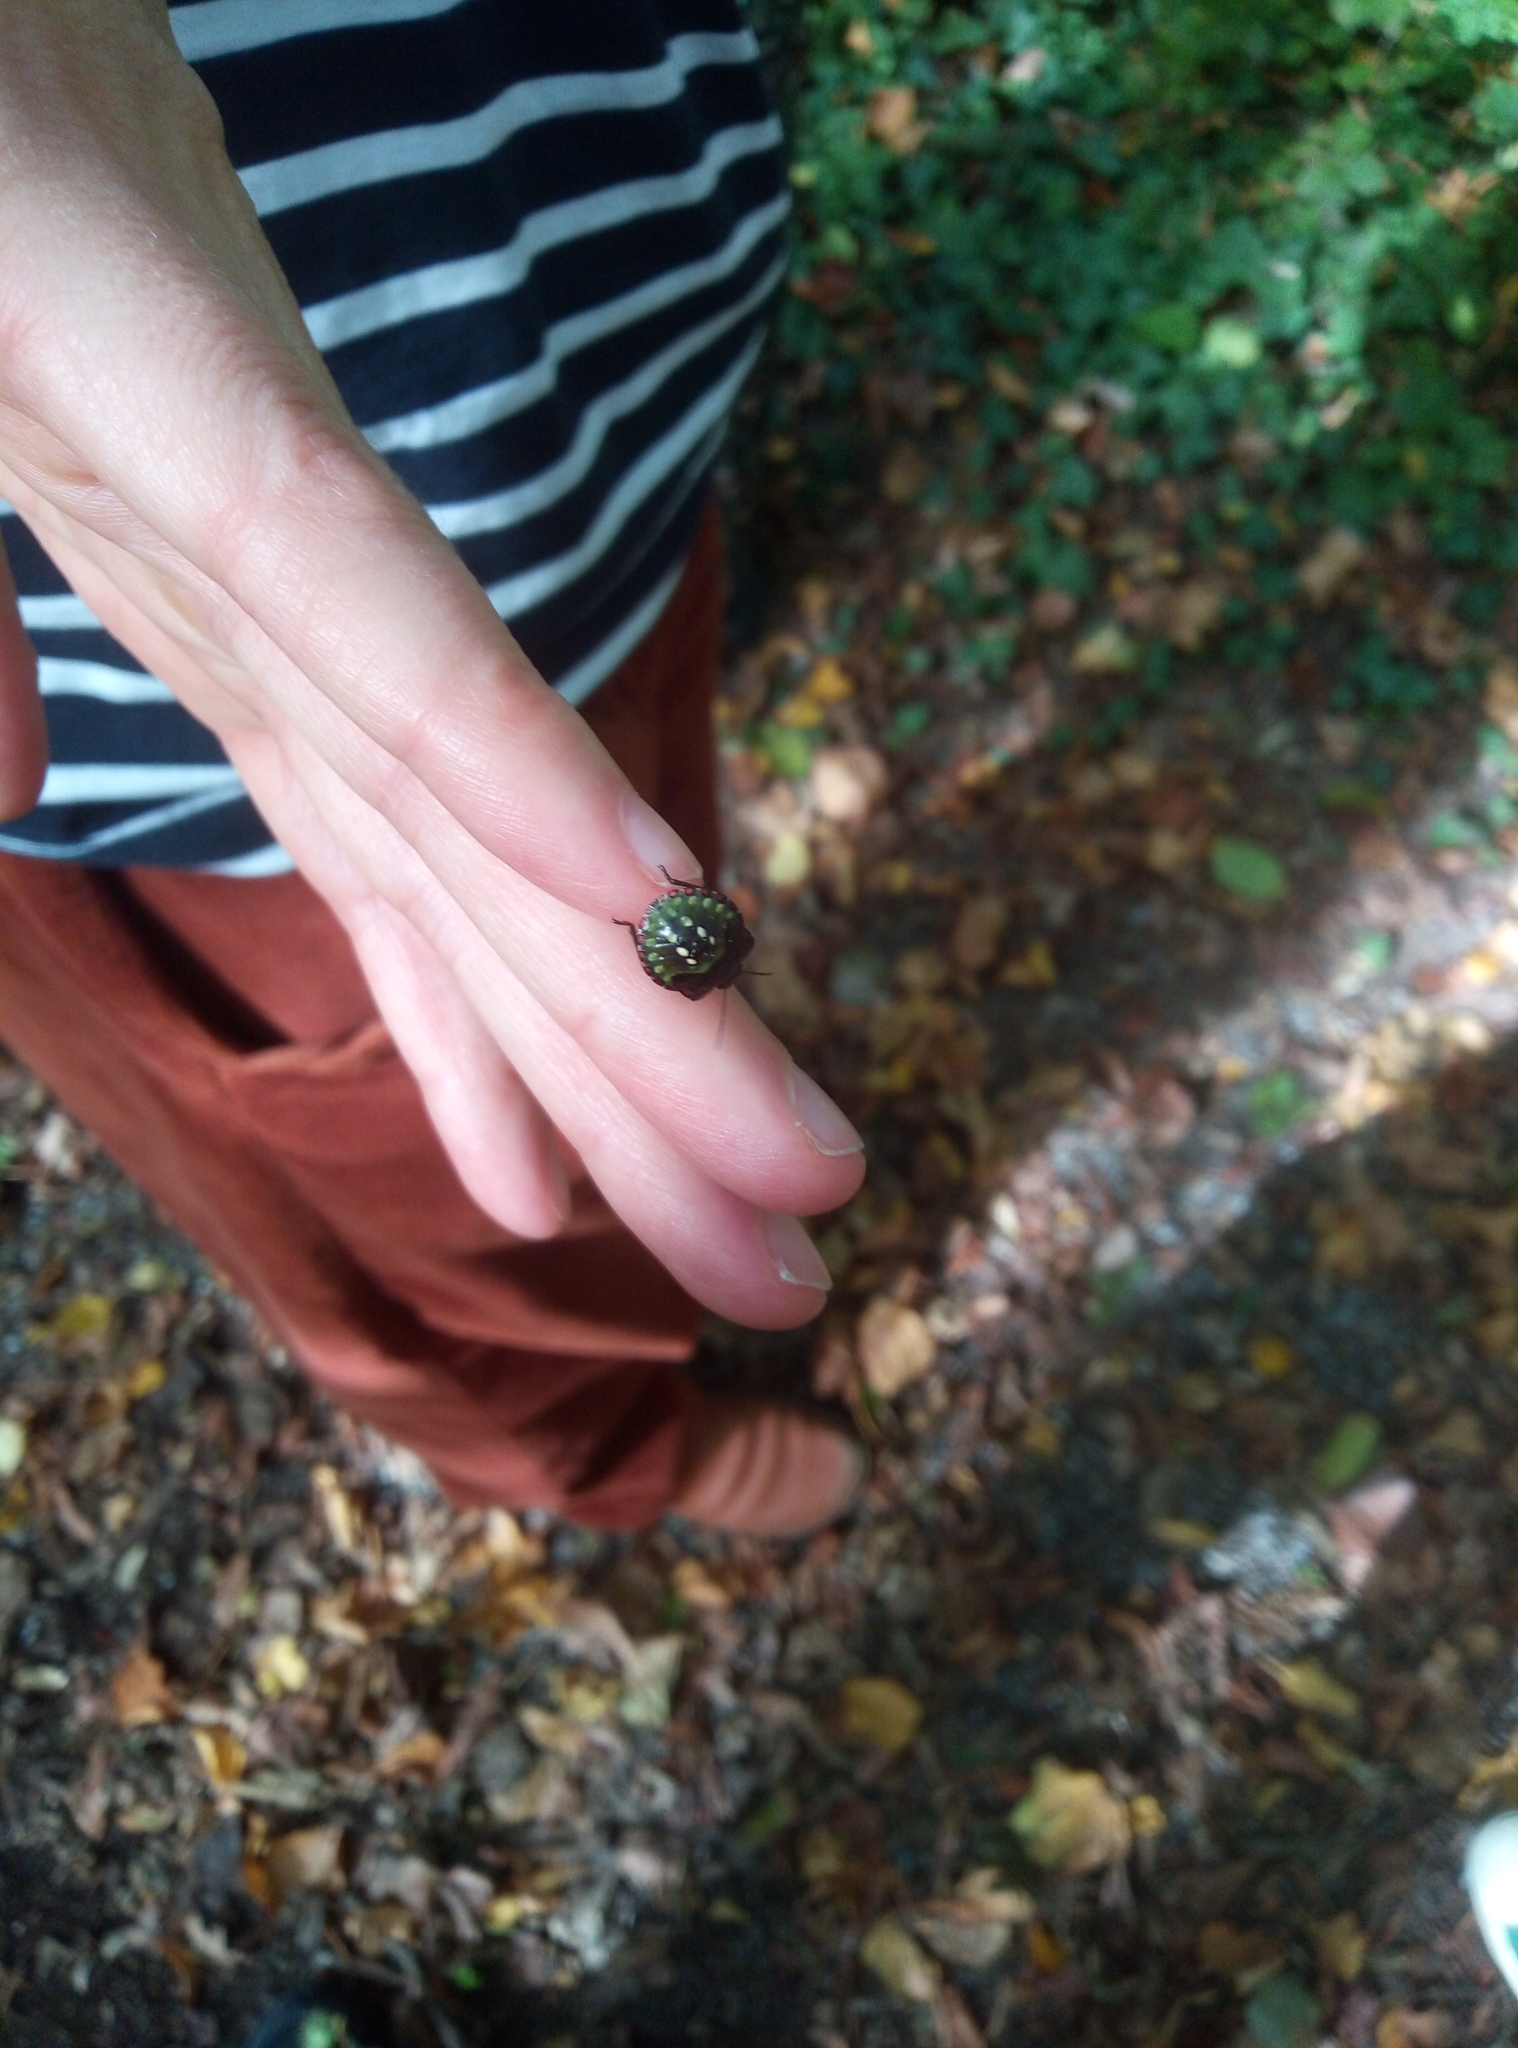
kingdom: Animalia
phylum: Arthropoda
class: Insecta
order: Hemiptera
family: Pentatomidae
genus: Nezara
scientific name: Nezara viridula
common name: Southern green stink bug
